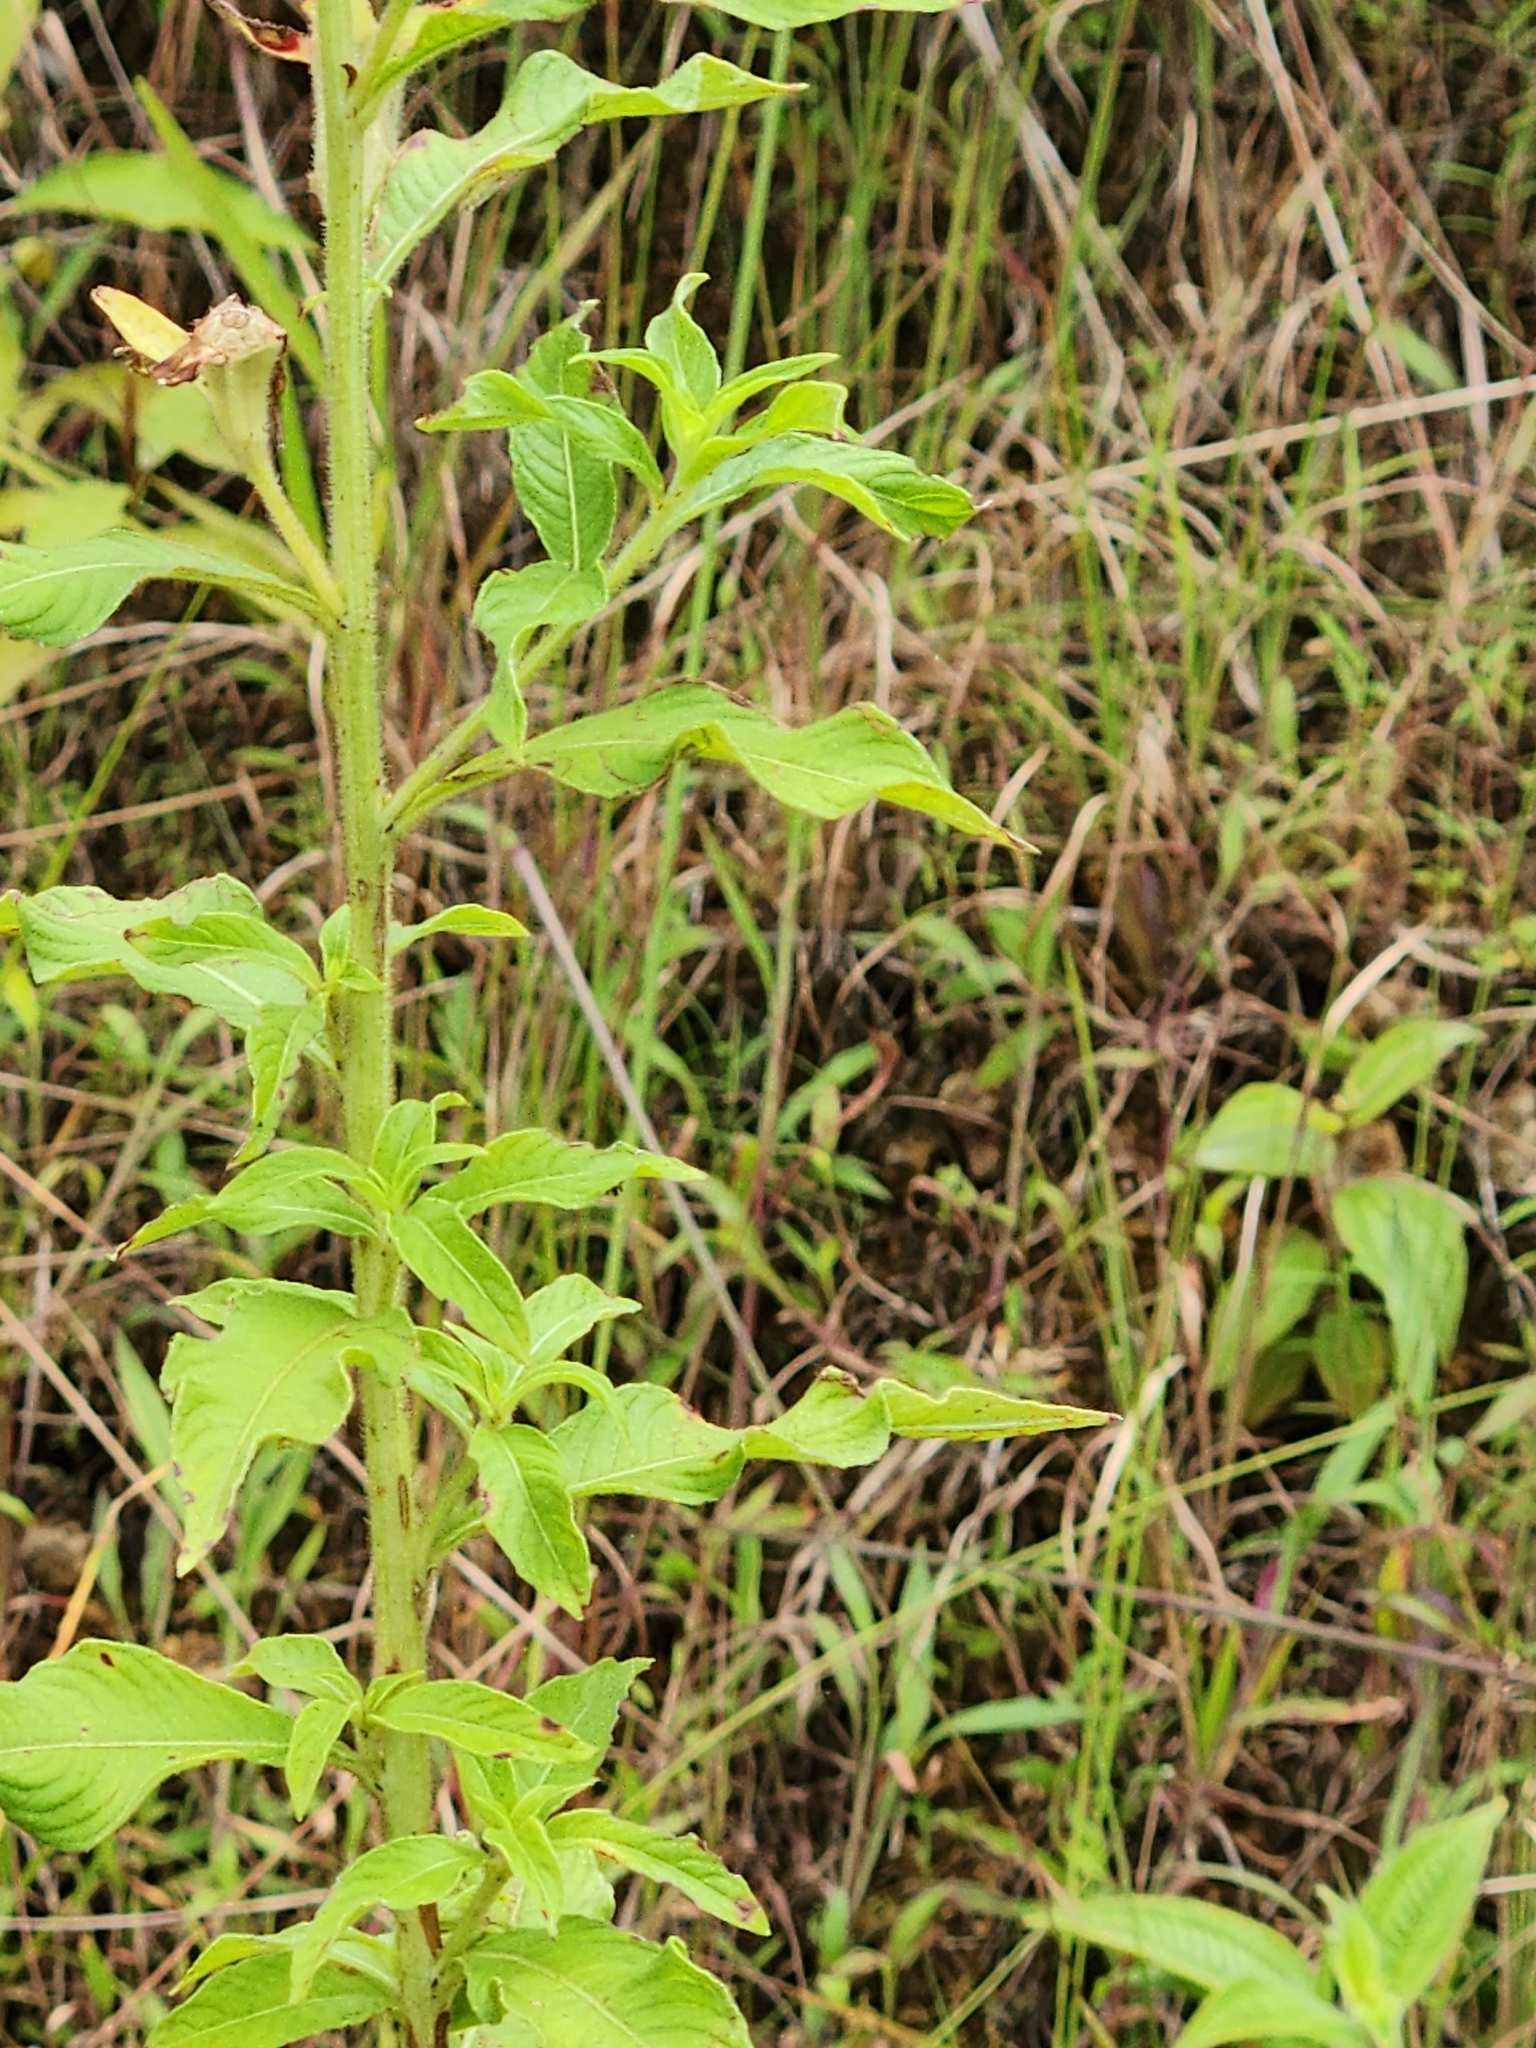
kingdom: Plantae
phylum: Tracheophyta
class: Magnoliopsida
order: Myrtales
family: Onagraceae
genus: Ludwigia
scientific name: Ludwigia peruviana
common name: Peruvian primrose-willow
